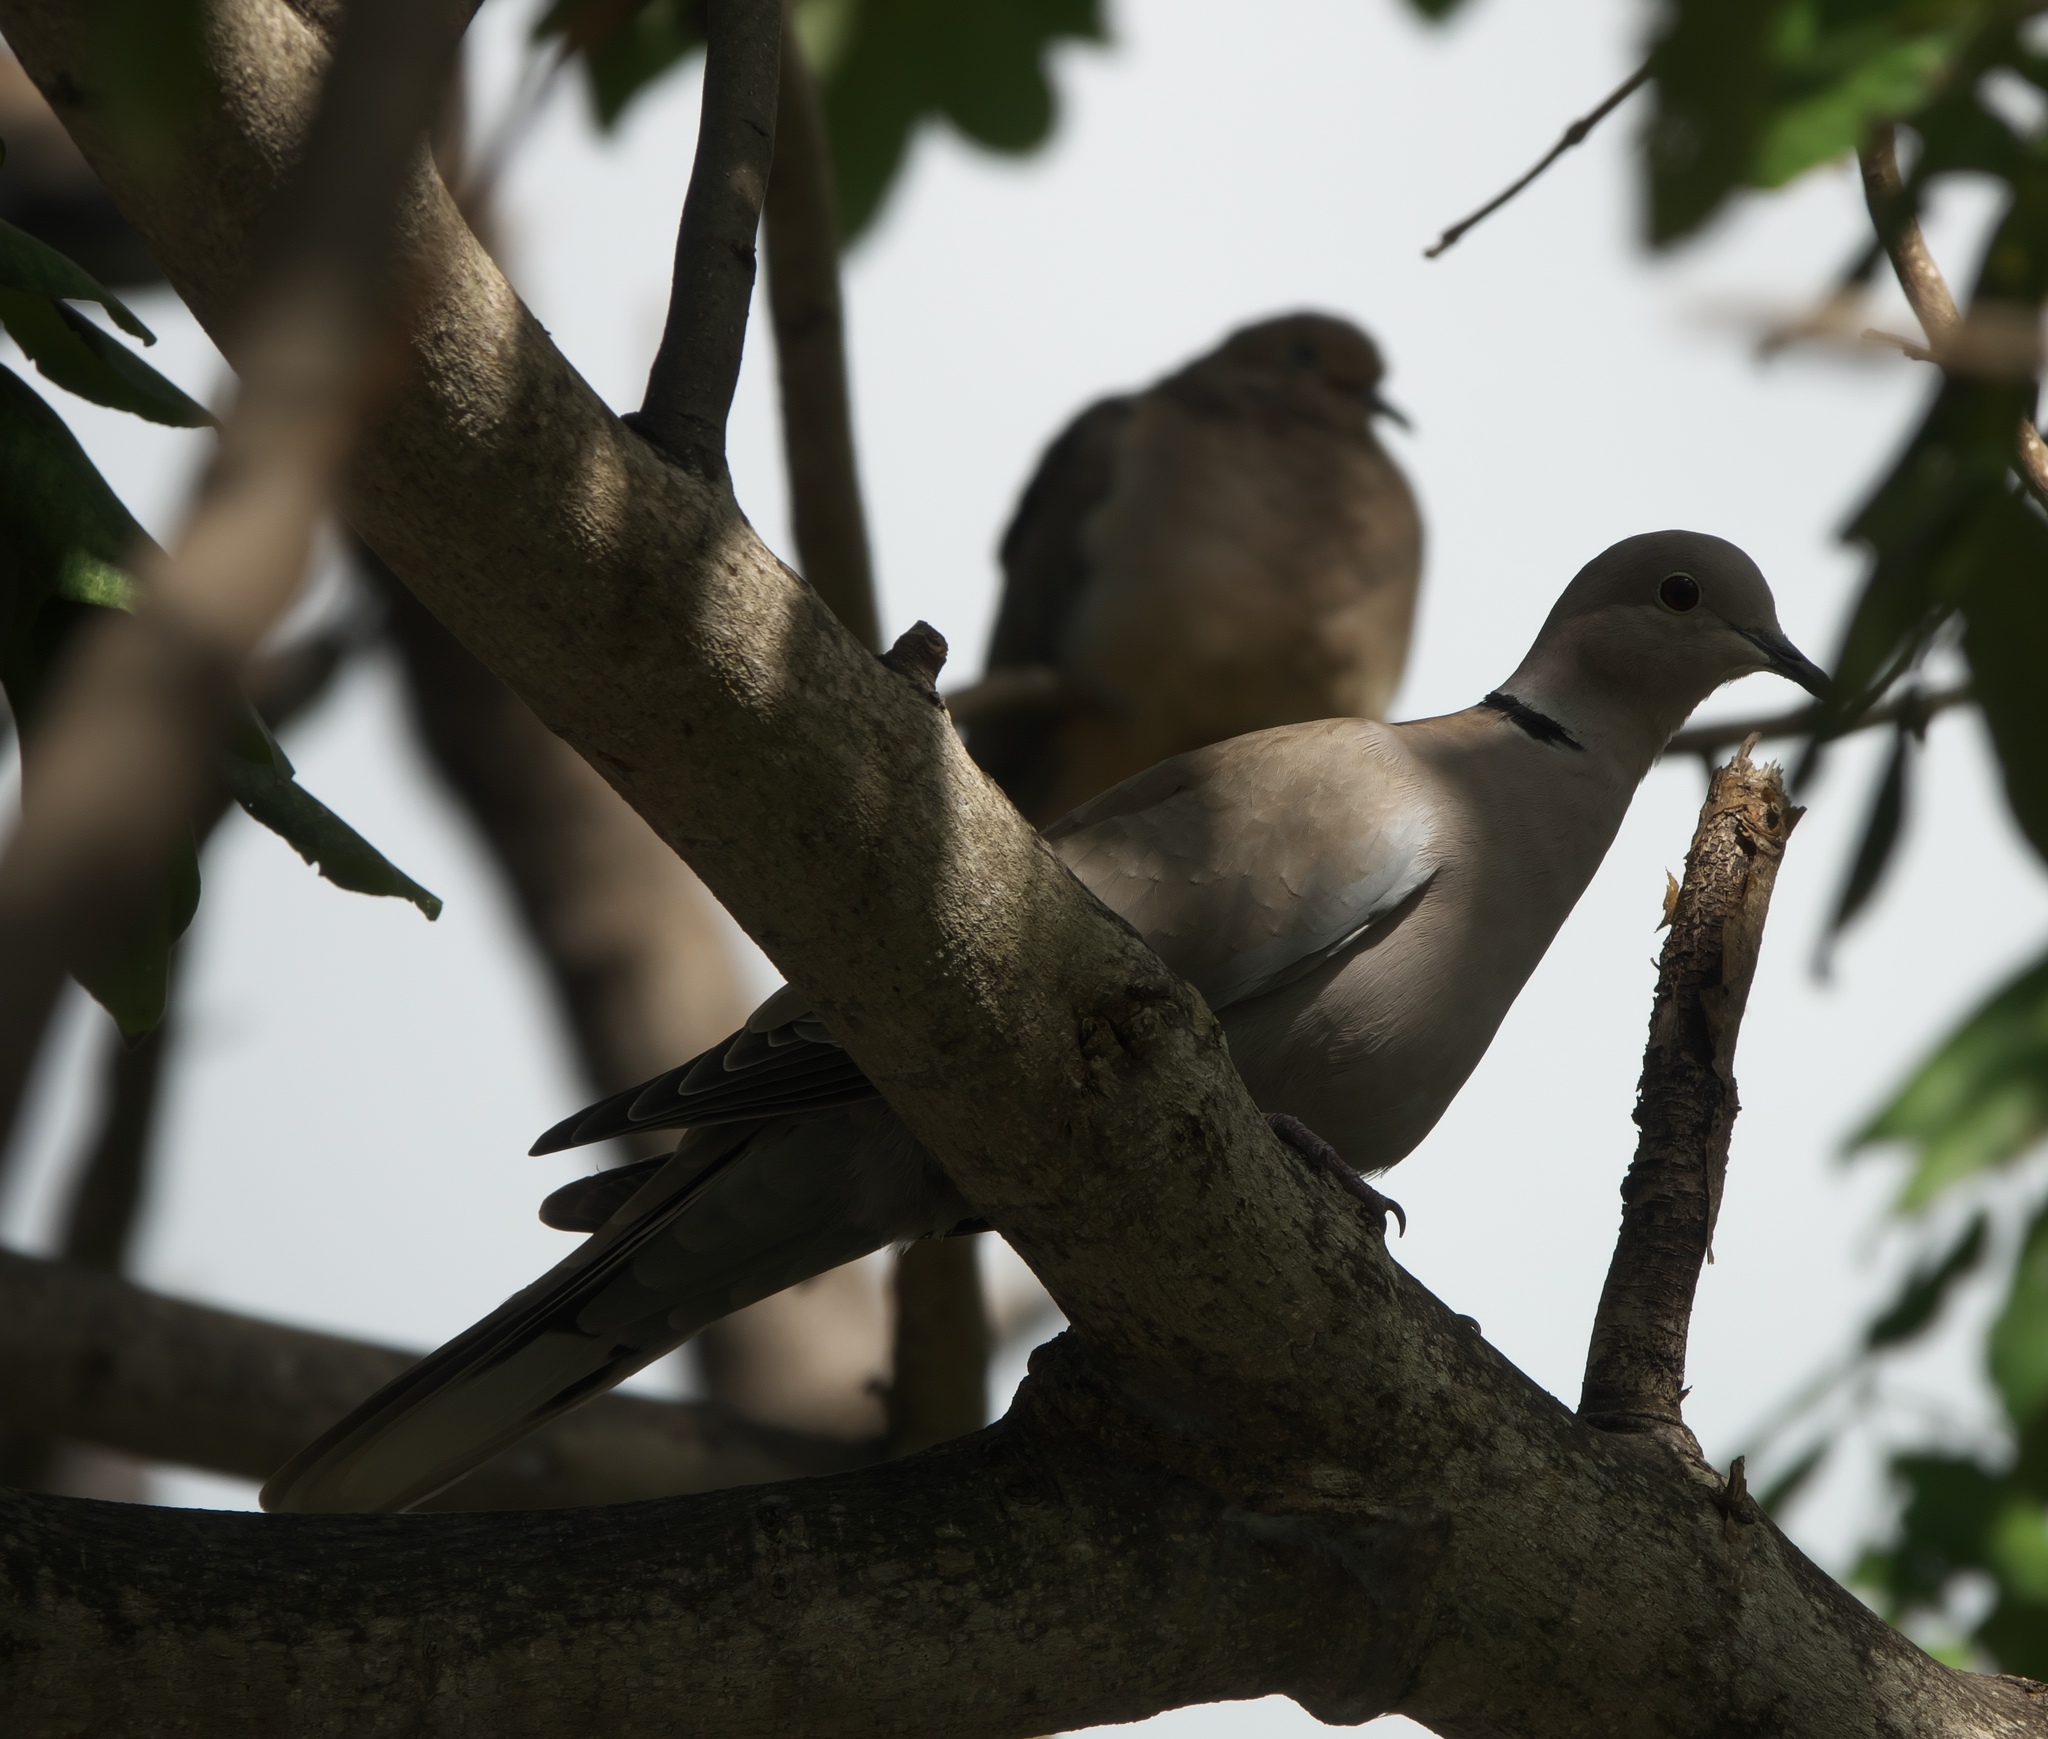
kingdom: Animalia
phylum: Chordata
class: Aves
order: Columbiformes
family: Columbidae
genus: Streptopelia
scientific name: Streptopelia decaocto
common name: Eurasian collared dove
